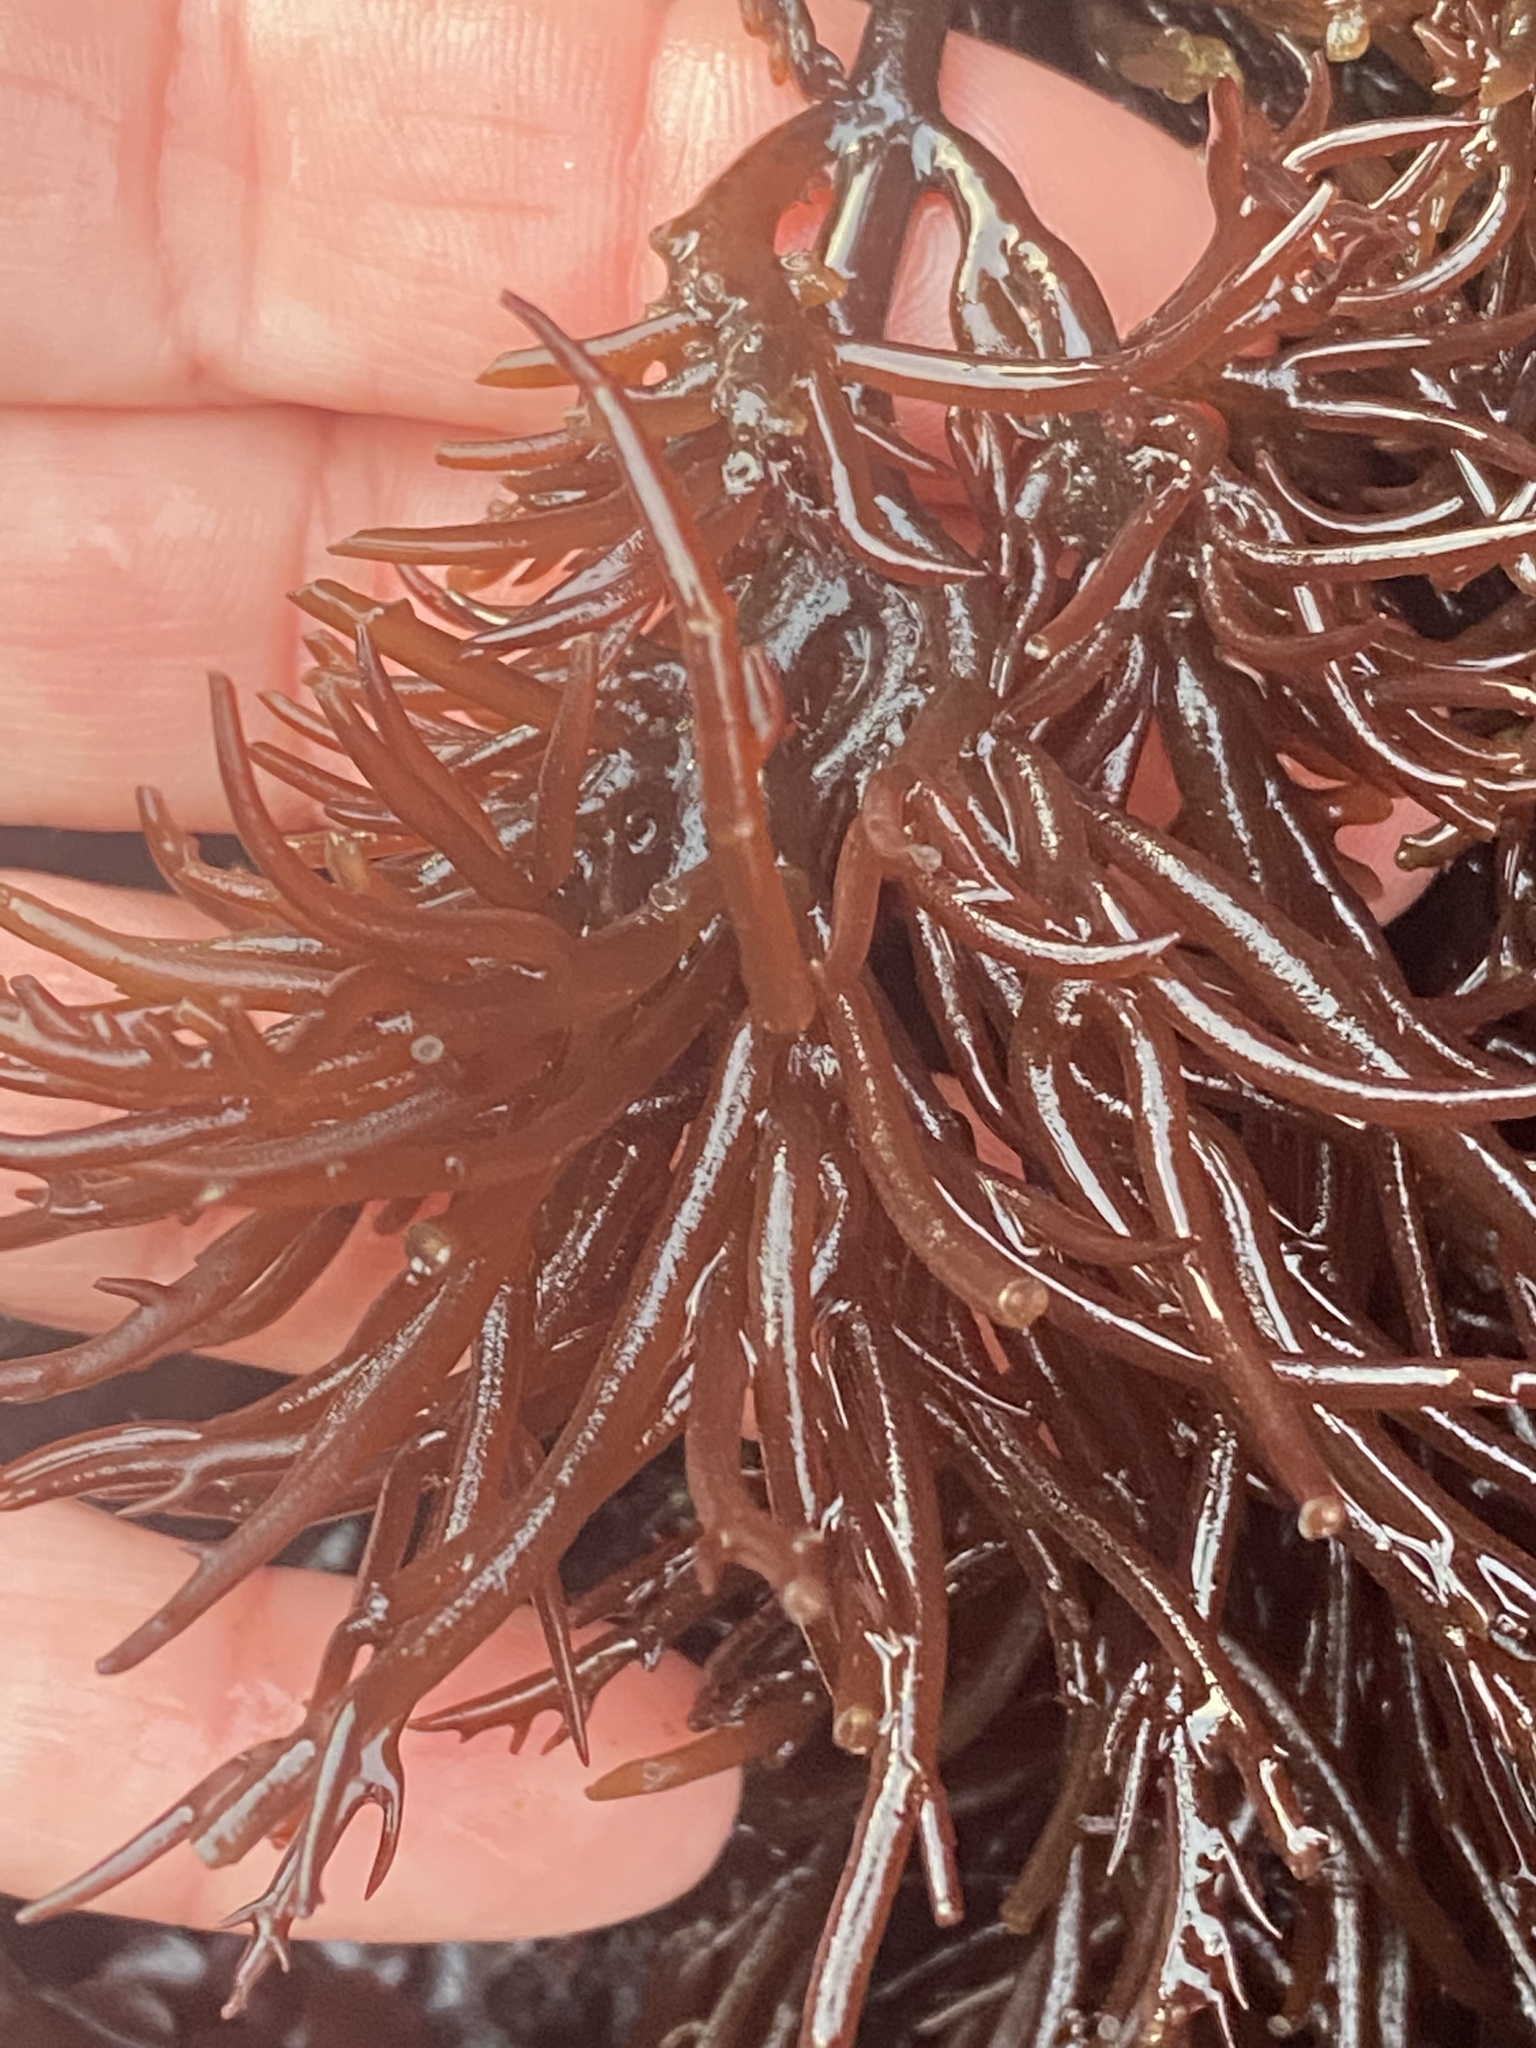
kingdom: Plantae
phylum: Rhodophyta
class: Florideophyceae
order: Gigartinales
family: Solieriaceae
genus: Sarcodiotheca
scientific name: Sarcodiotheca gaudichaudii
